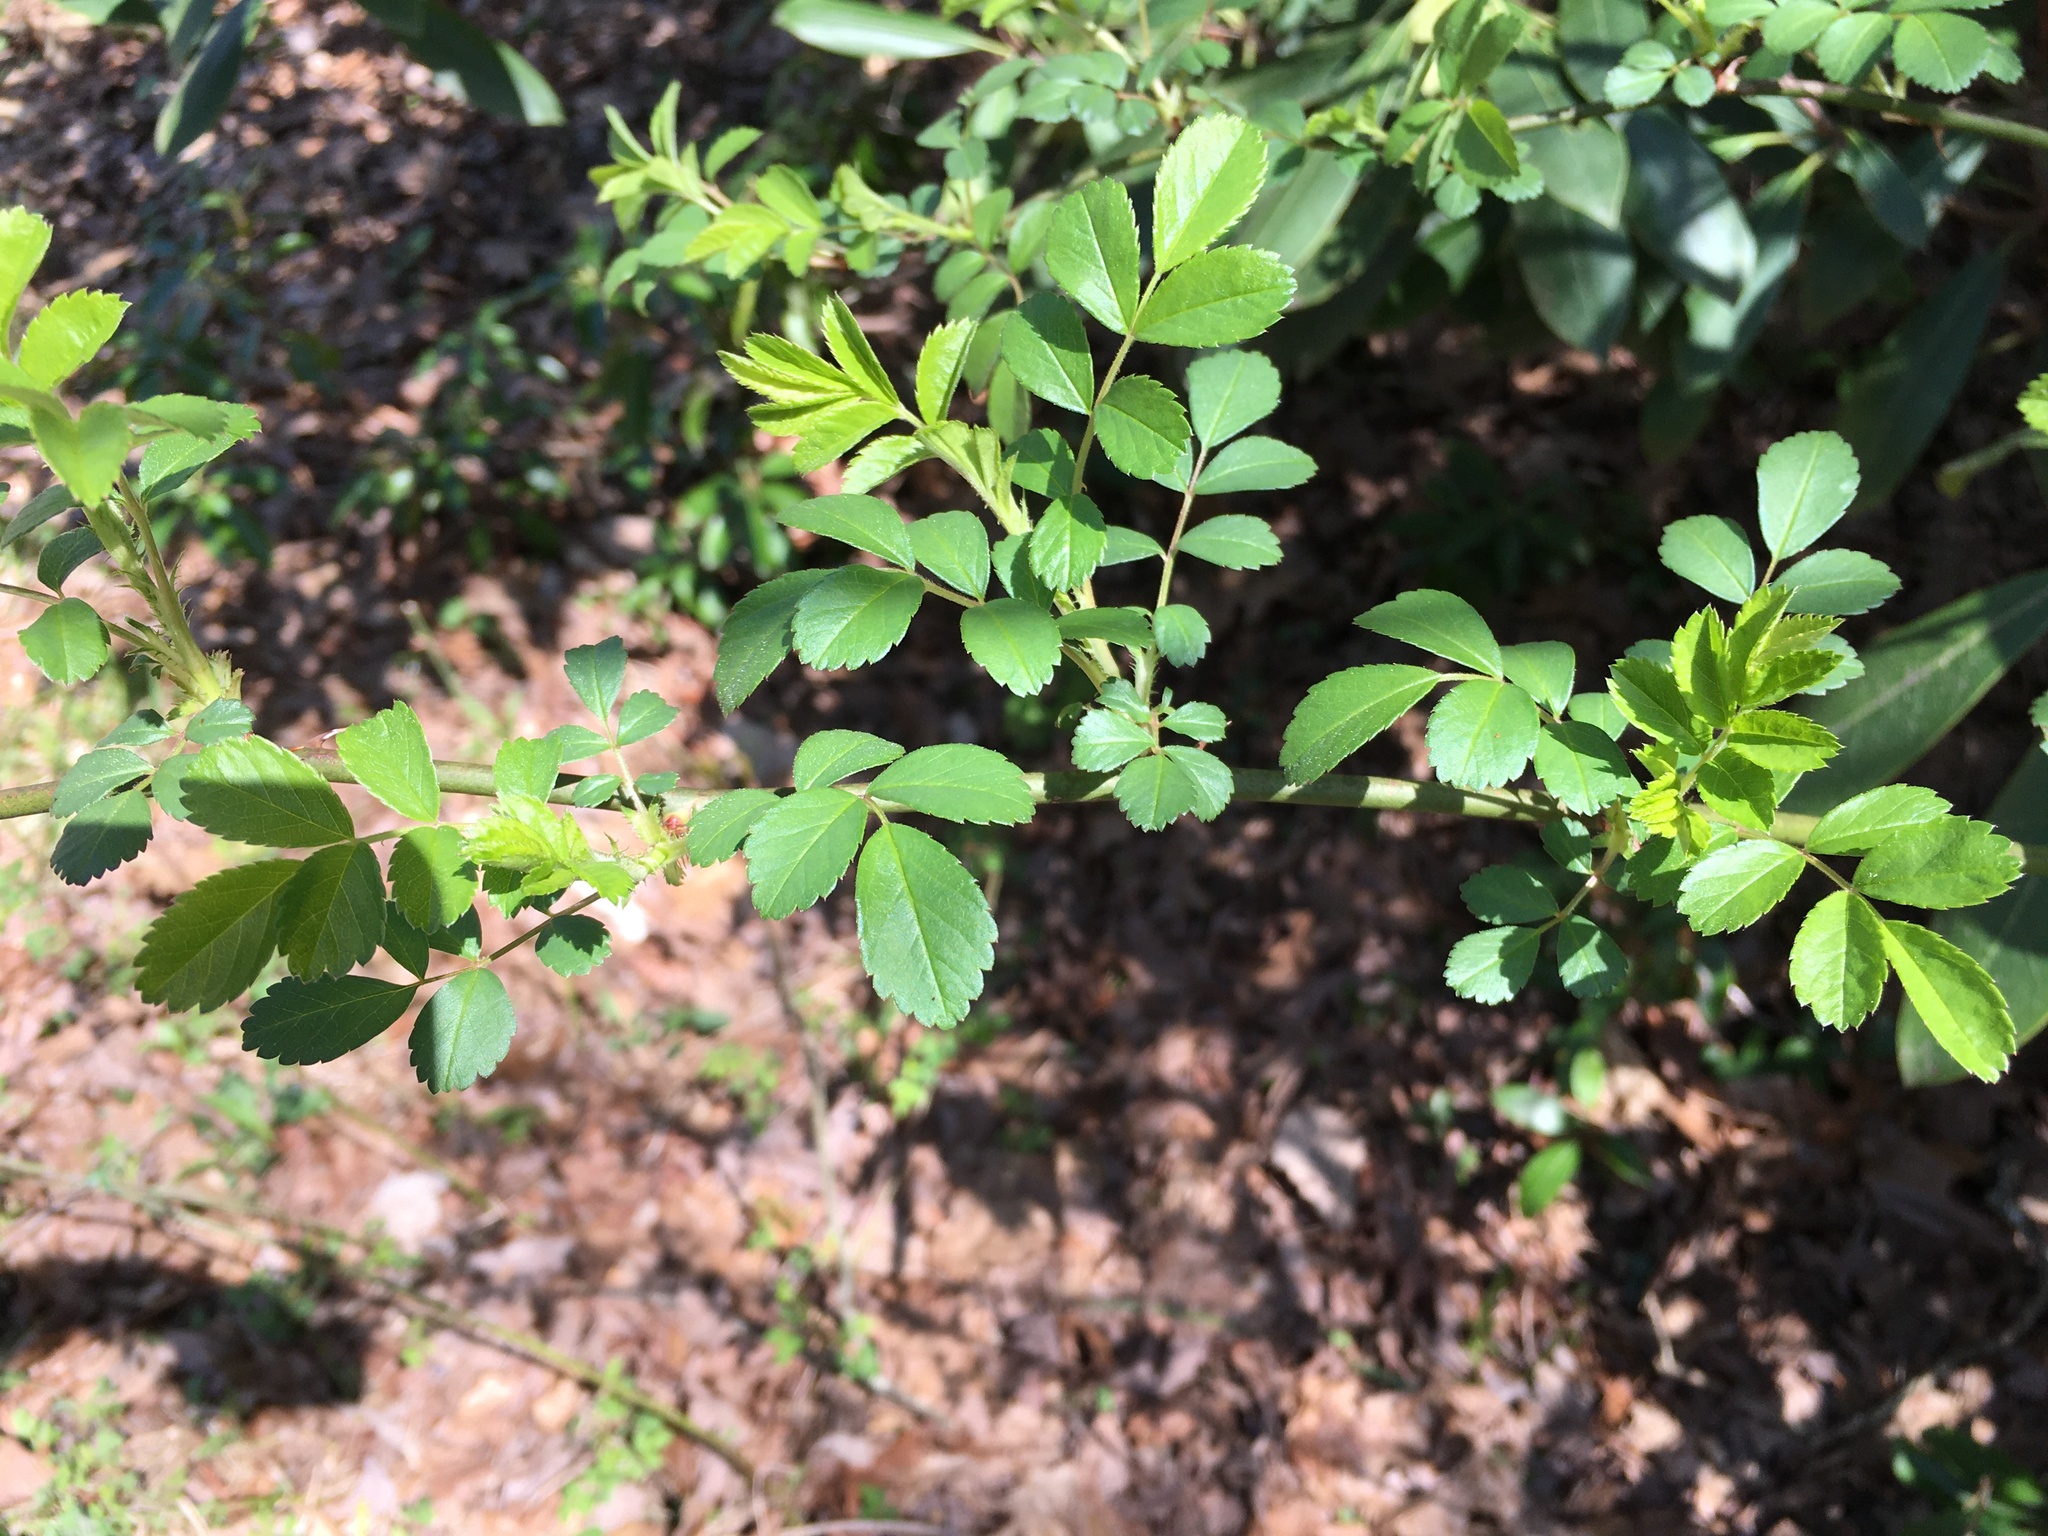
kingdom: Plantae
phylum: Tracheophyta
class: Magnoliopsida
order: Rosales
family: Rosaceae
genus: Rosa
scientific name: Rosa multiflora
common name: Multiflora rose
